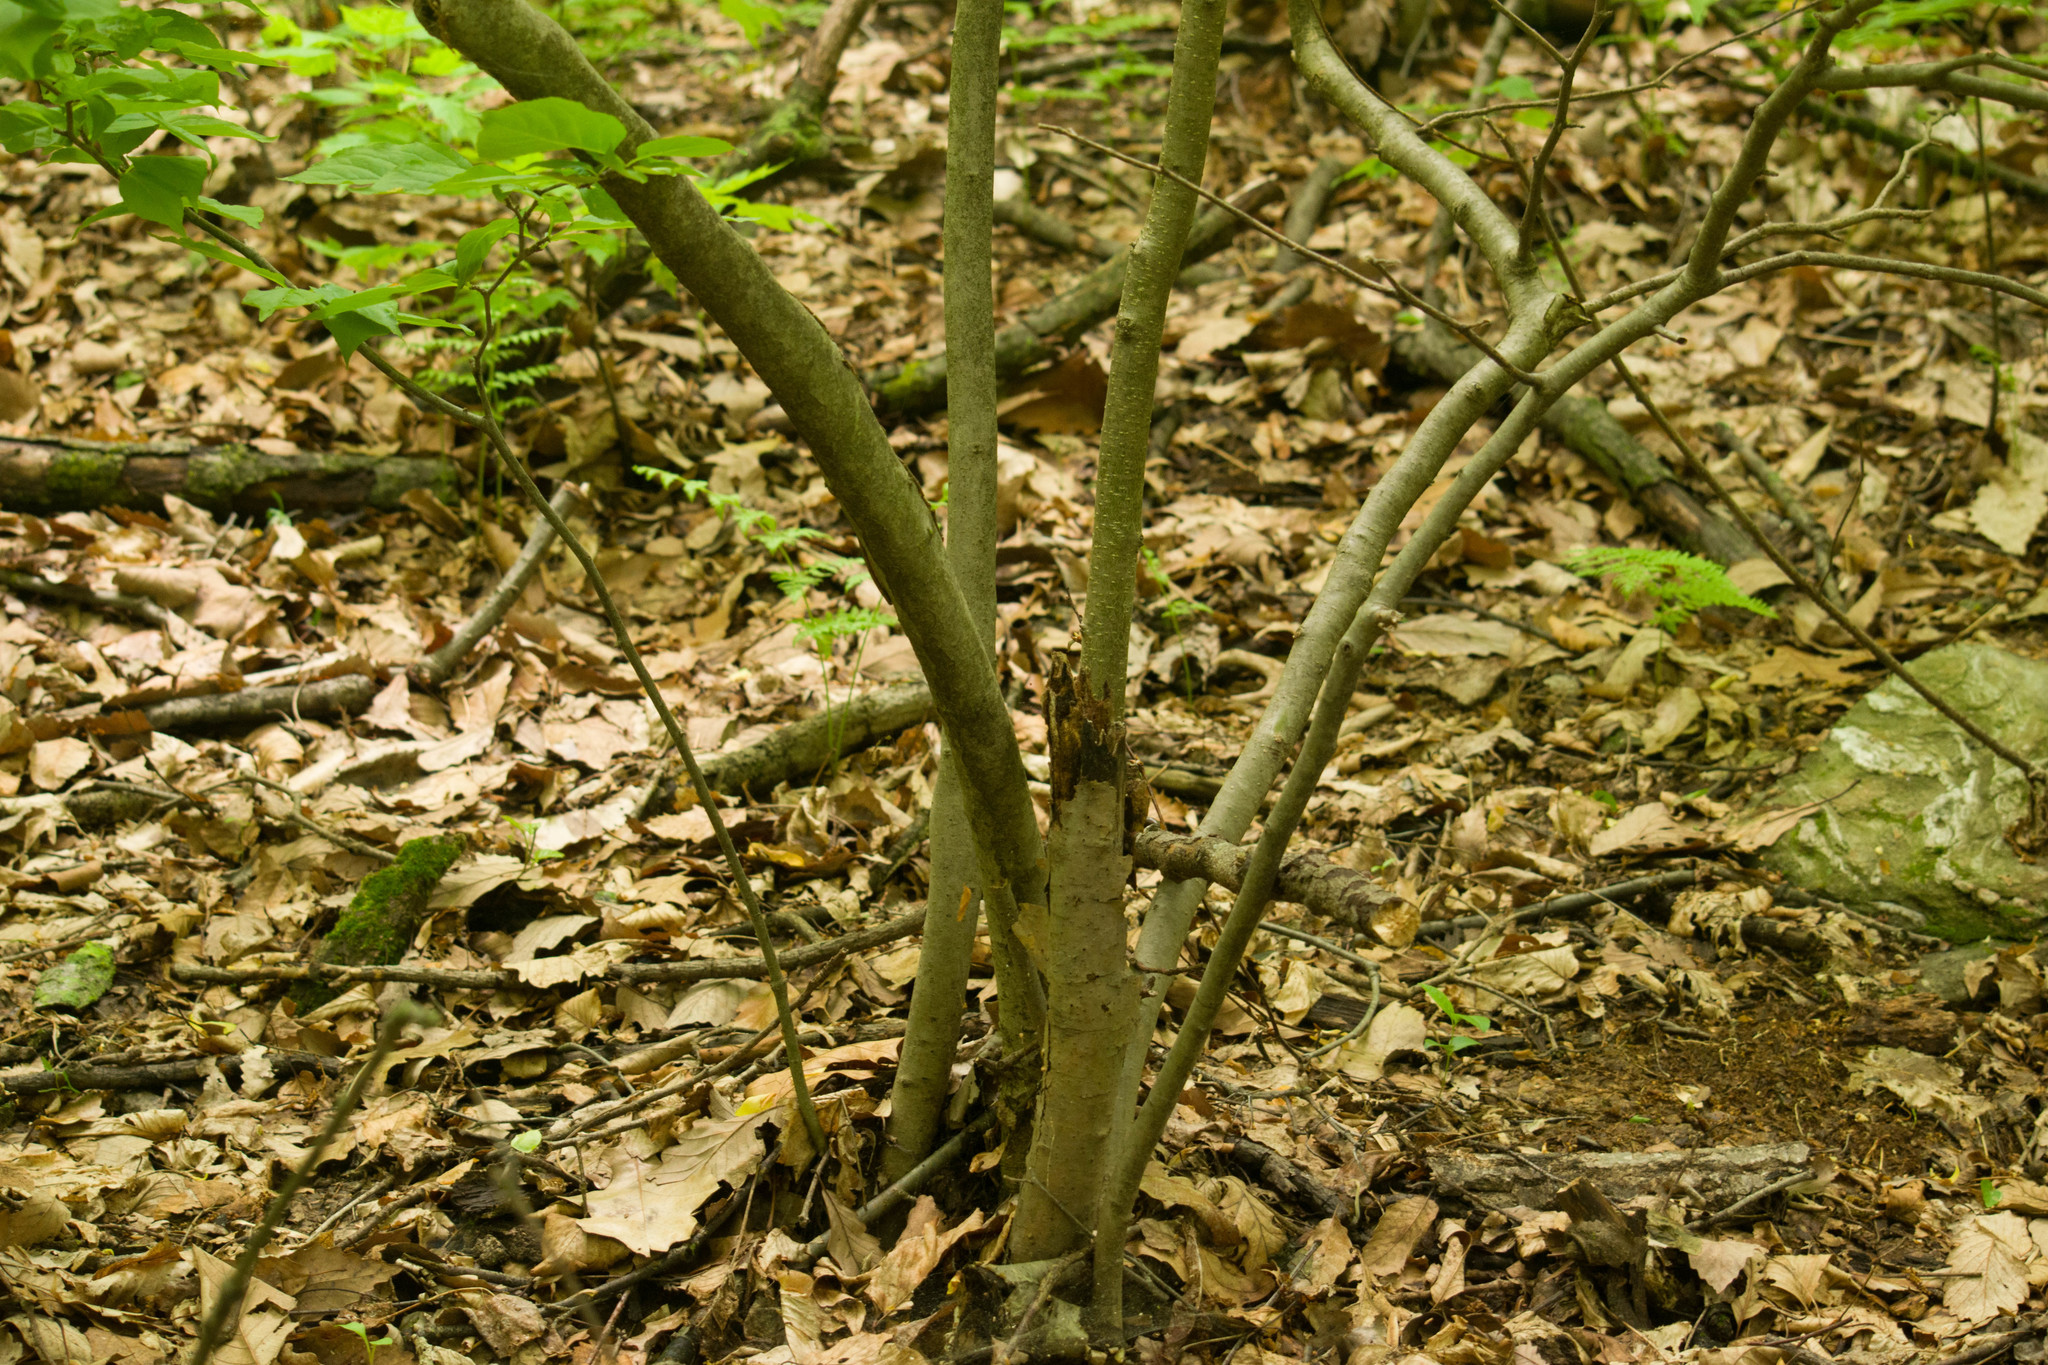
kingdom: Plantae
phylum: Tracheophyta
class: Magnoliopsida
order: Aquifoliales
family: Aquifoliaceae
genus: Ilex
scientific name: Ilex montana
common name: Mountain winterberry
